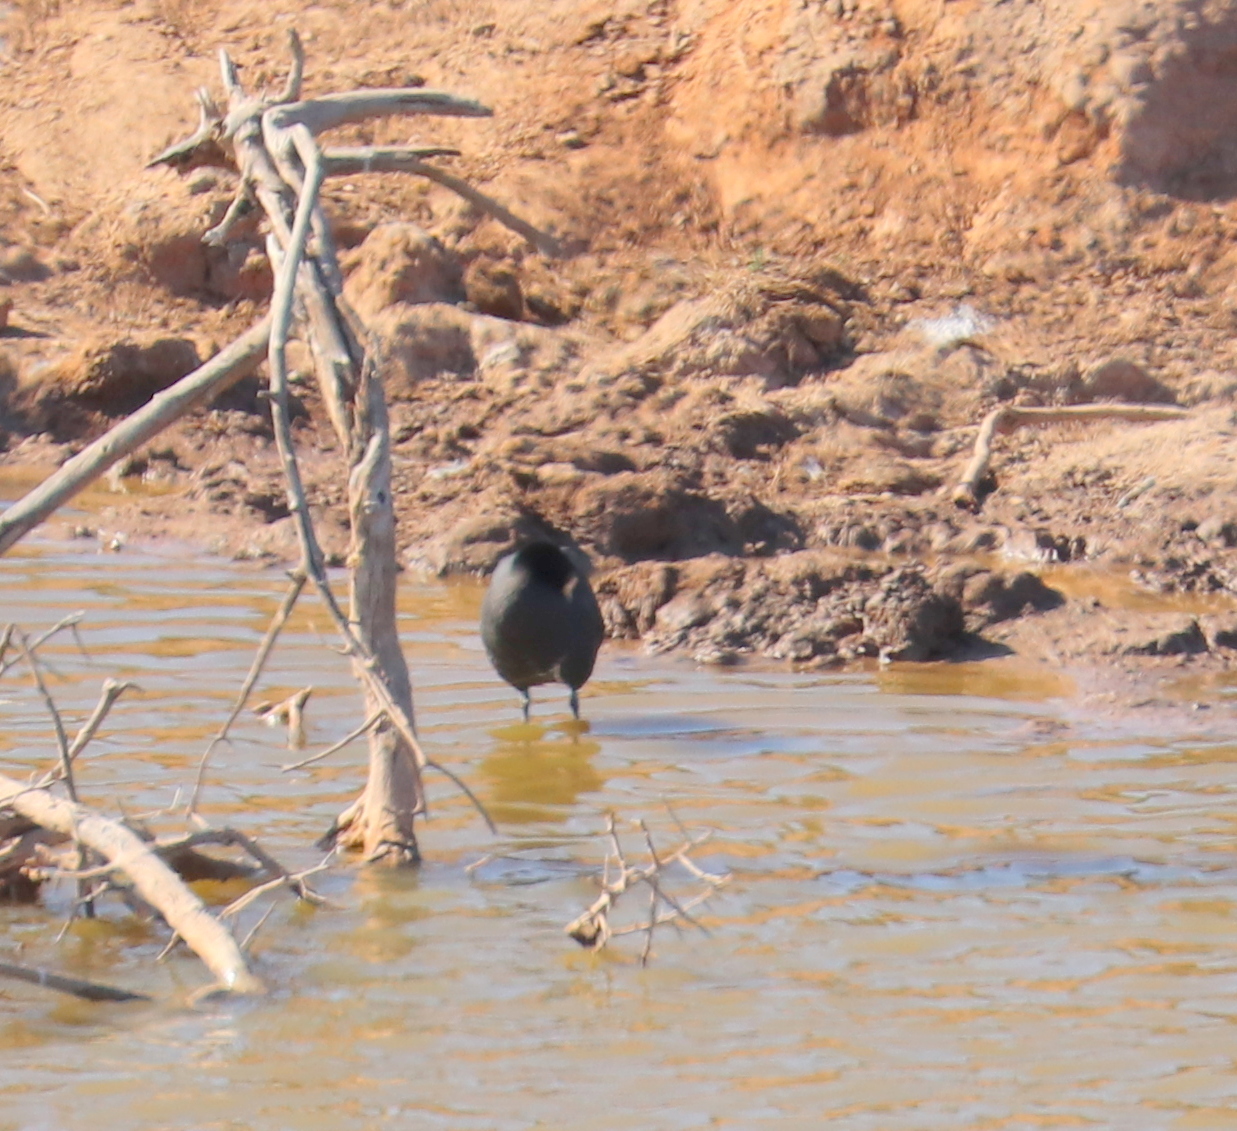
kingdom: Animalia
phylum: Chordata
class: Aves
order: Gruiformes
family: Rallidae
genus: Fulica
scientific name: Fulica cristata
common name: Red-knobbed coot
